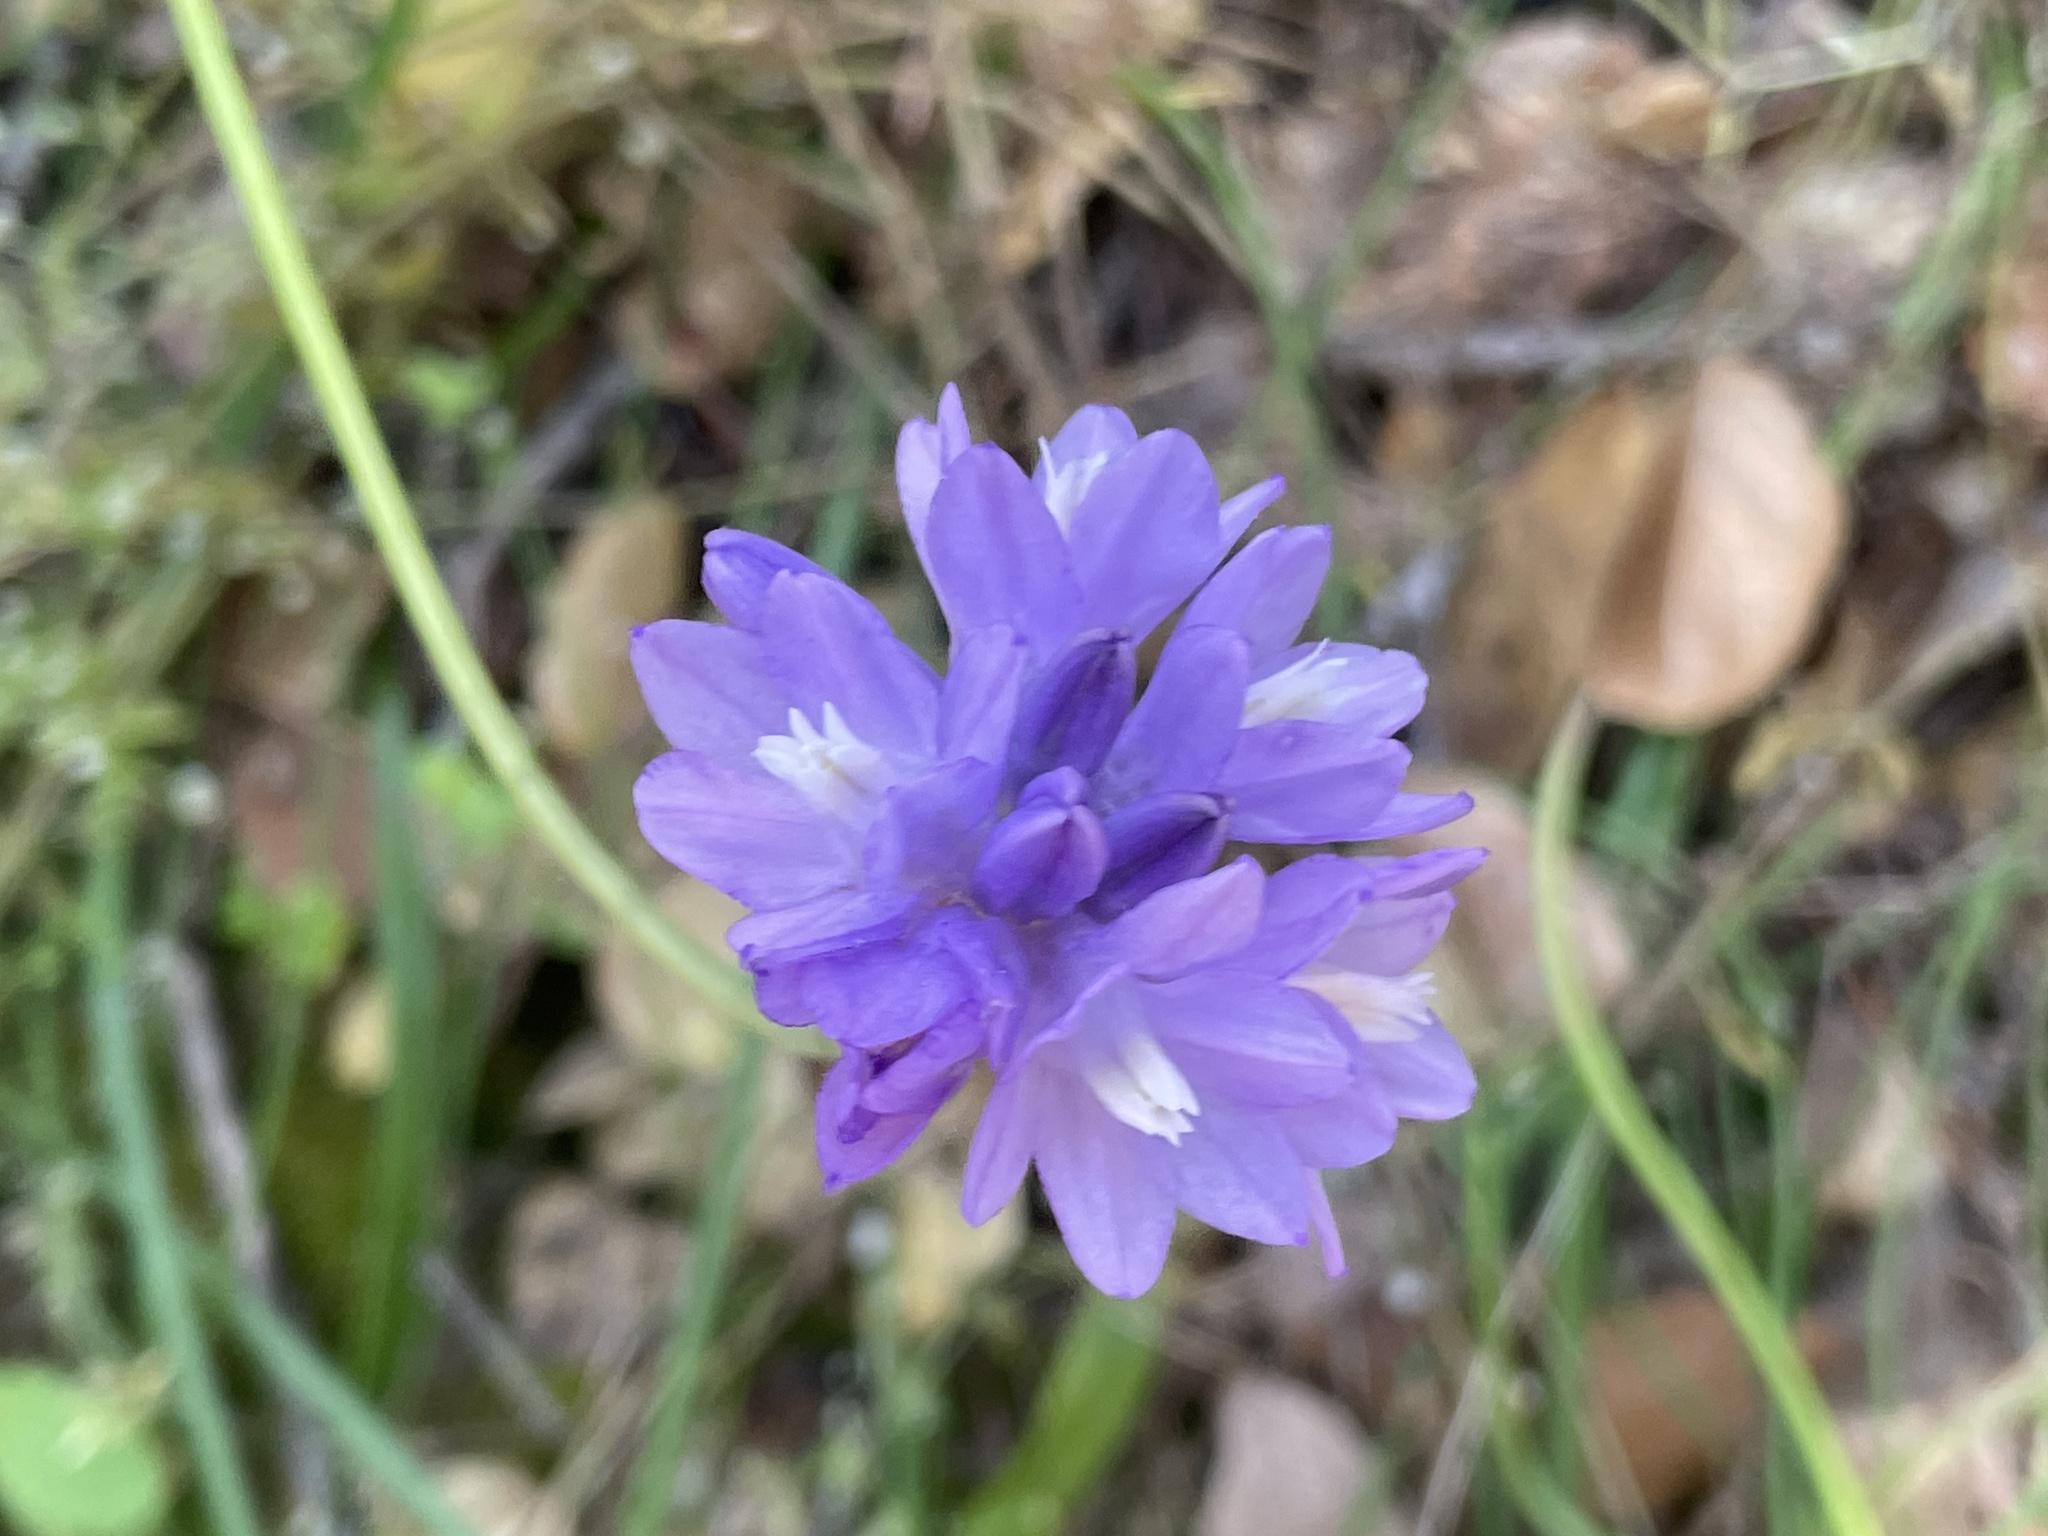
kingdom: Plantae
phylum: Tracheophyta
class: Liliopsida
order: Asparagales
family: Asparagaceae
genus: Dipterostemon
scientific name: Dipterostemon capitatus
